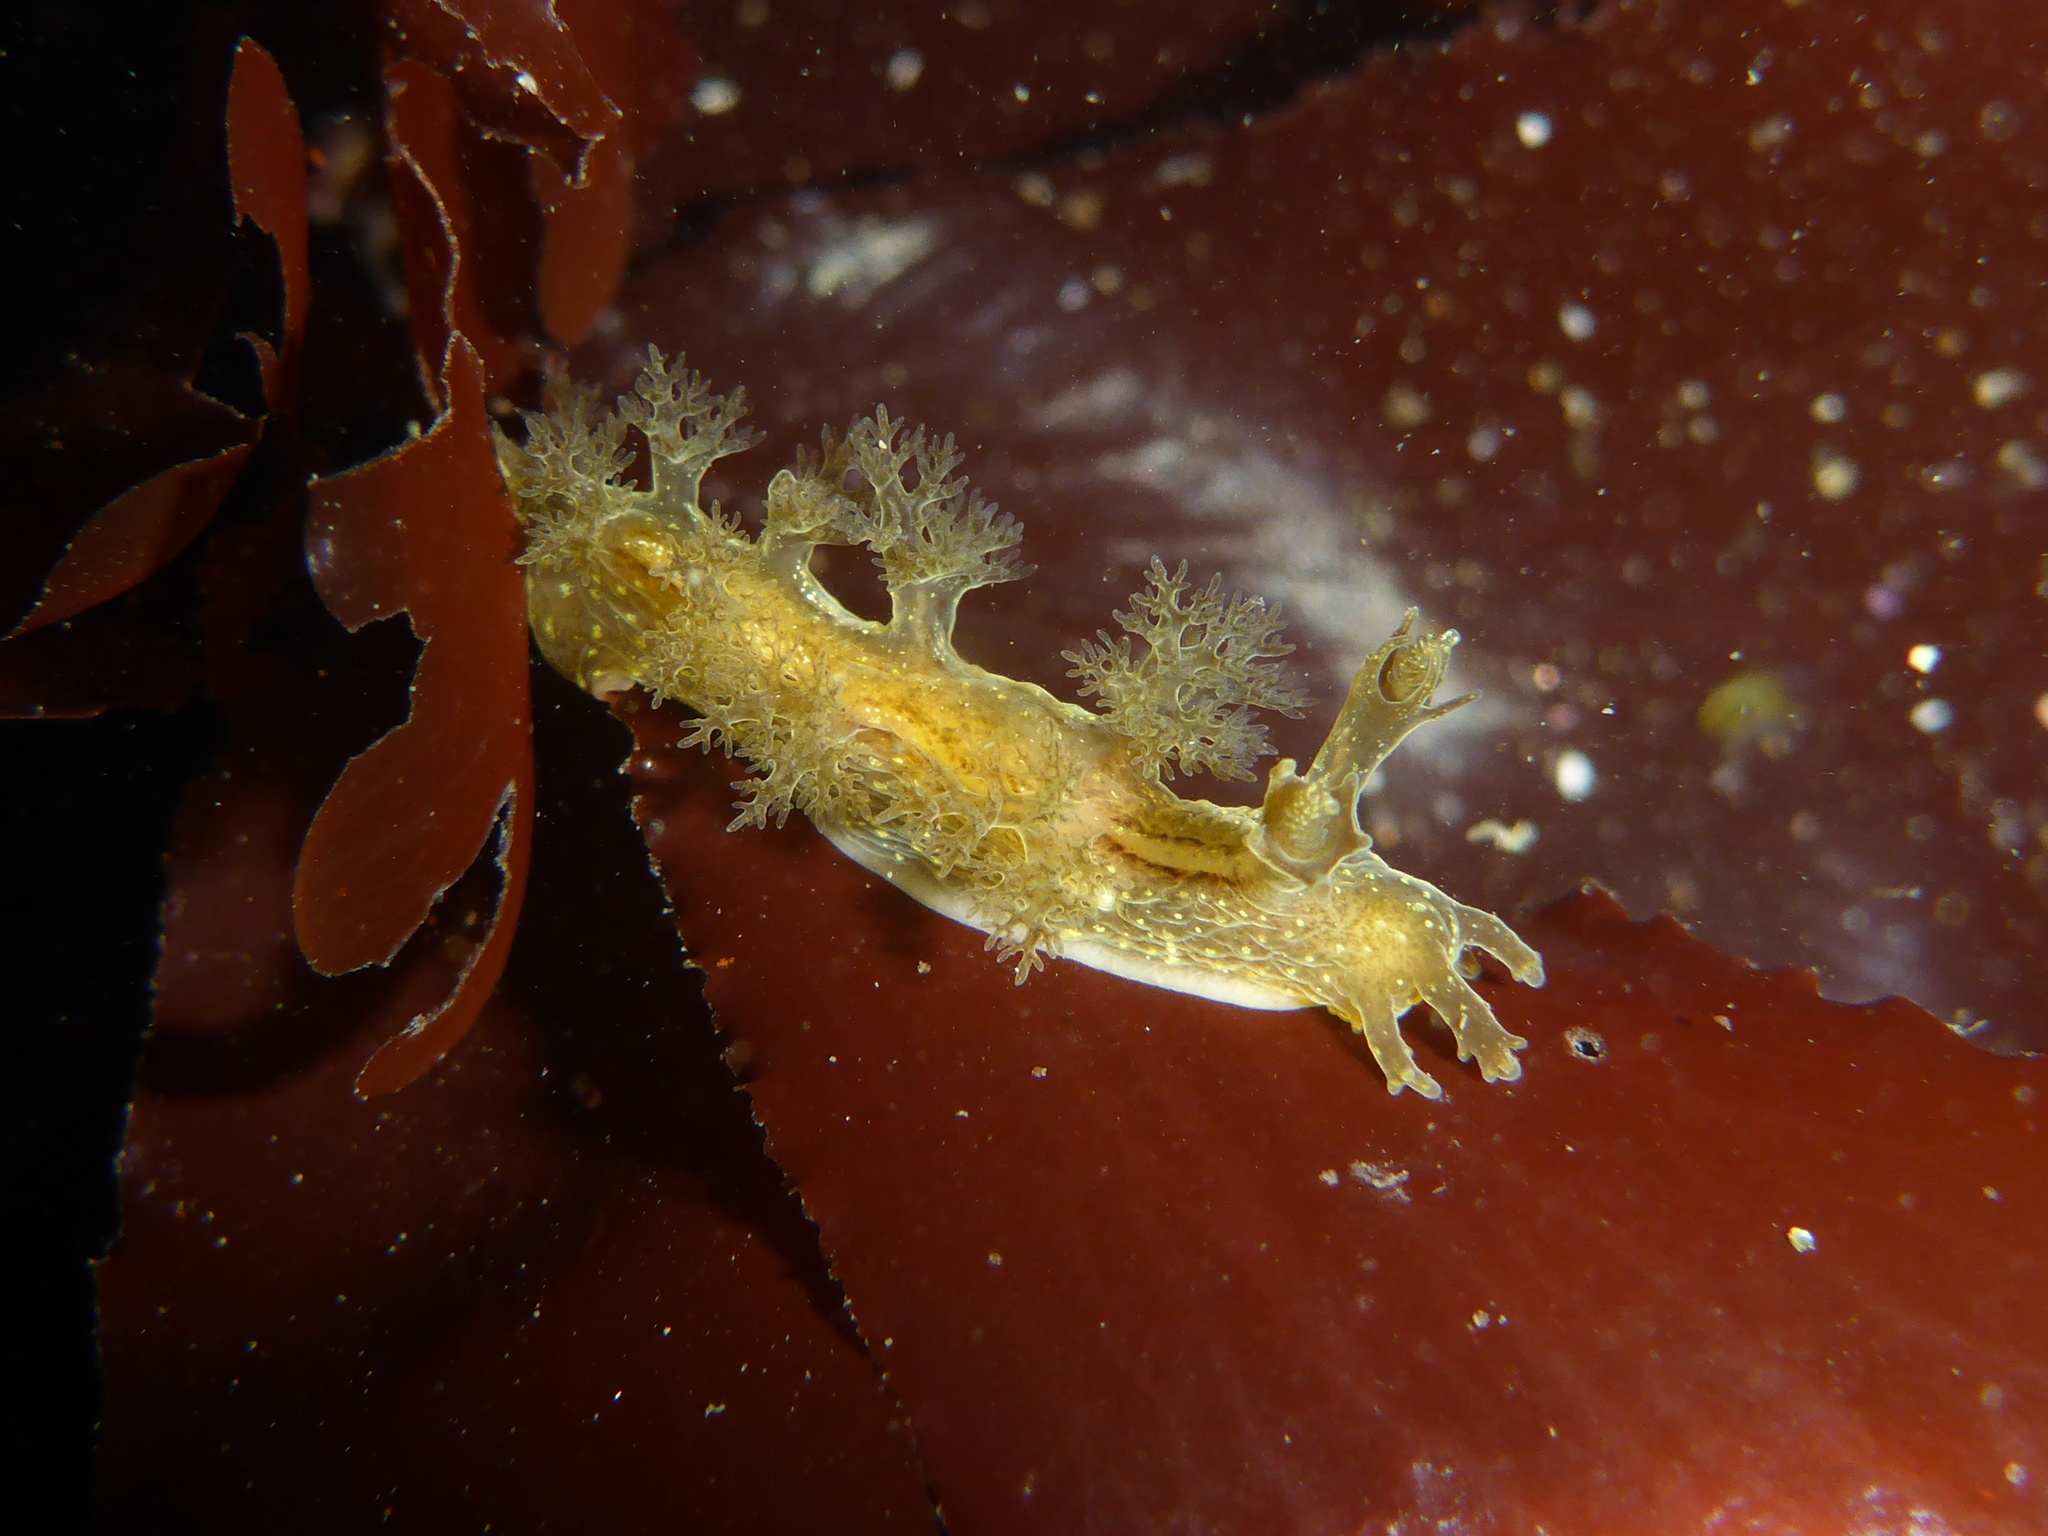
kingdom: Animalia
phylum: Mollusca
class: Gastropoda
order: Nudibranchia
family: Dendronotidae
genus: Dendronotus
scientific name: Dendronotus subramosus
